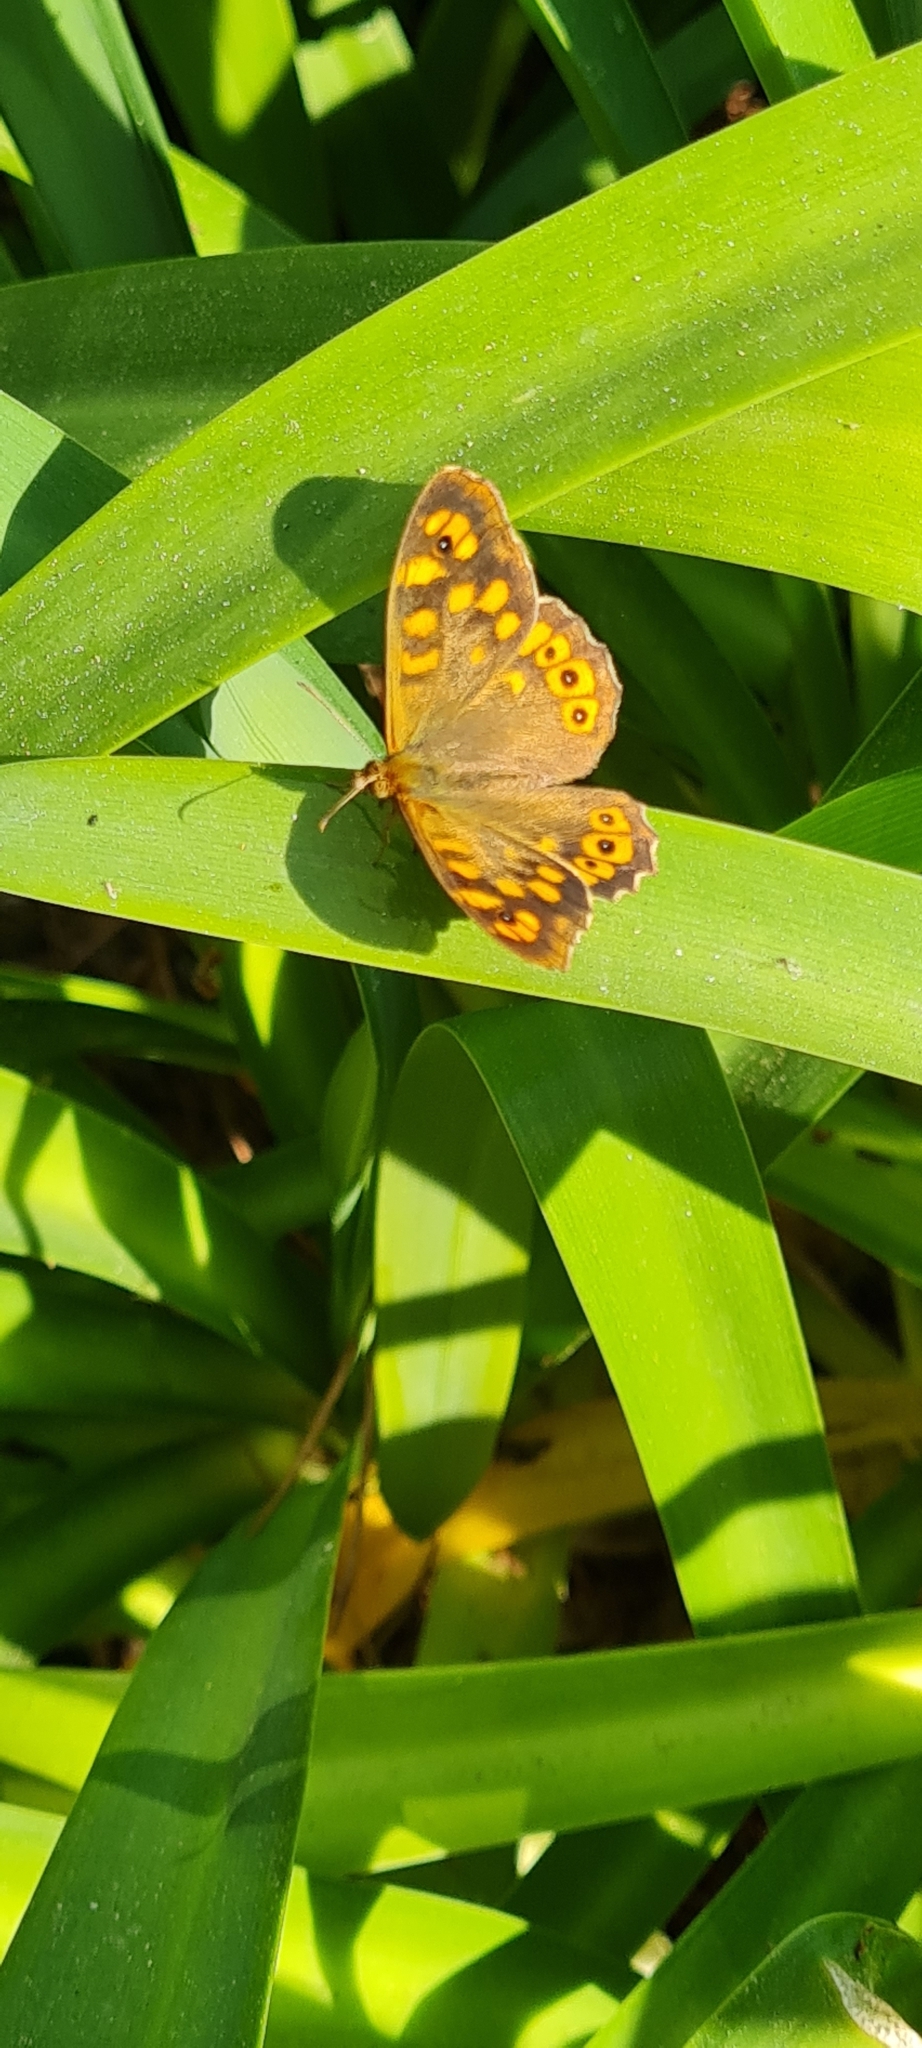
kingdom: Animalia
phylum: Arthropoda
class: Insecta
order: Lepidoptera
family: Nymphalidae
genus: Pararge
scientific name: Pararge aegeria
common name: Speckled wood
